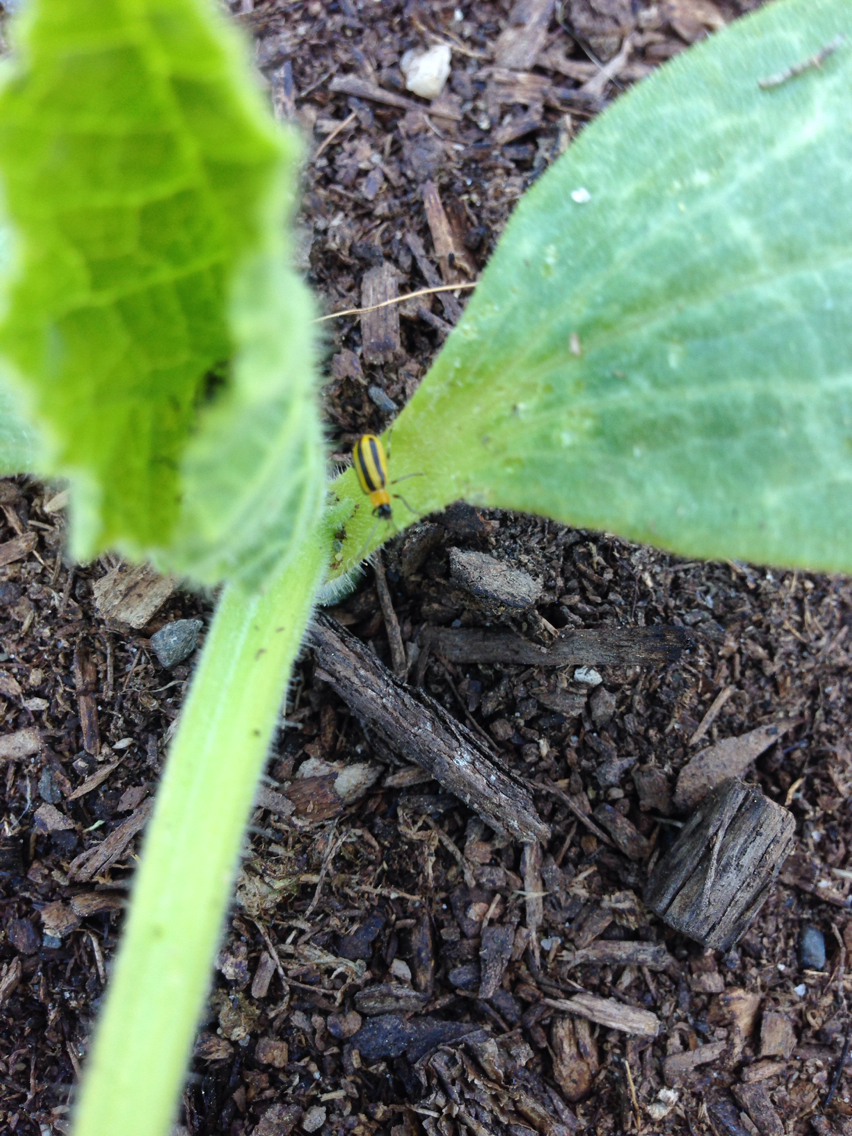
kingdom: Animalia
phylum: Arthropoda
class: Insecta
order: Coleoptera
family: Chrysomelidae
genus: Acalymma
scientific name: Acalymma vittatum
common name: Striped cucumber beetle
